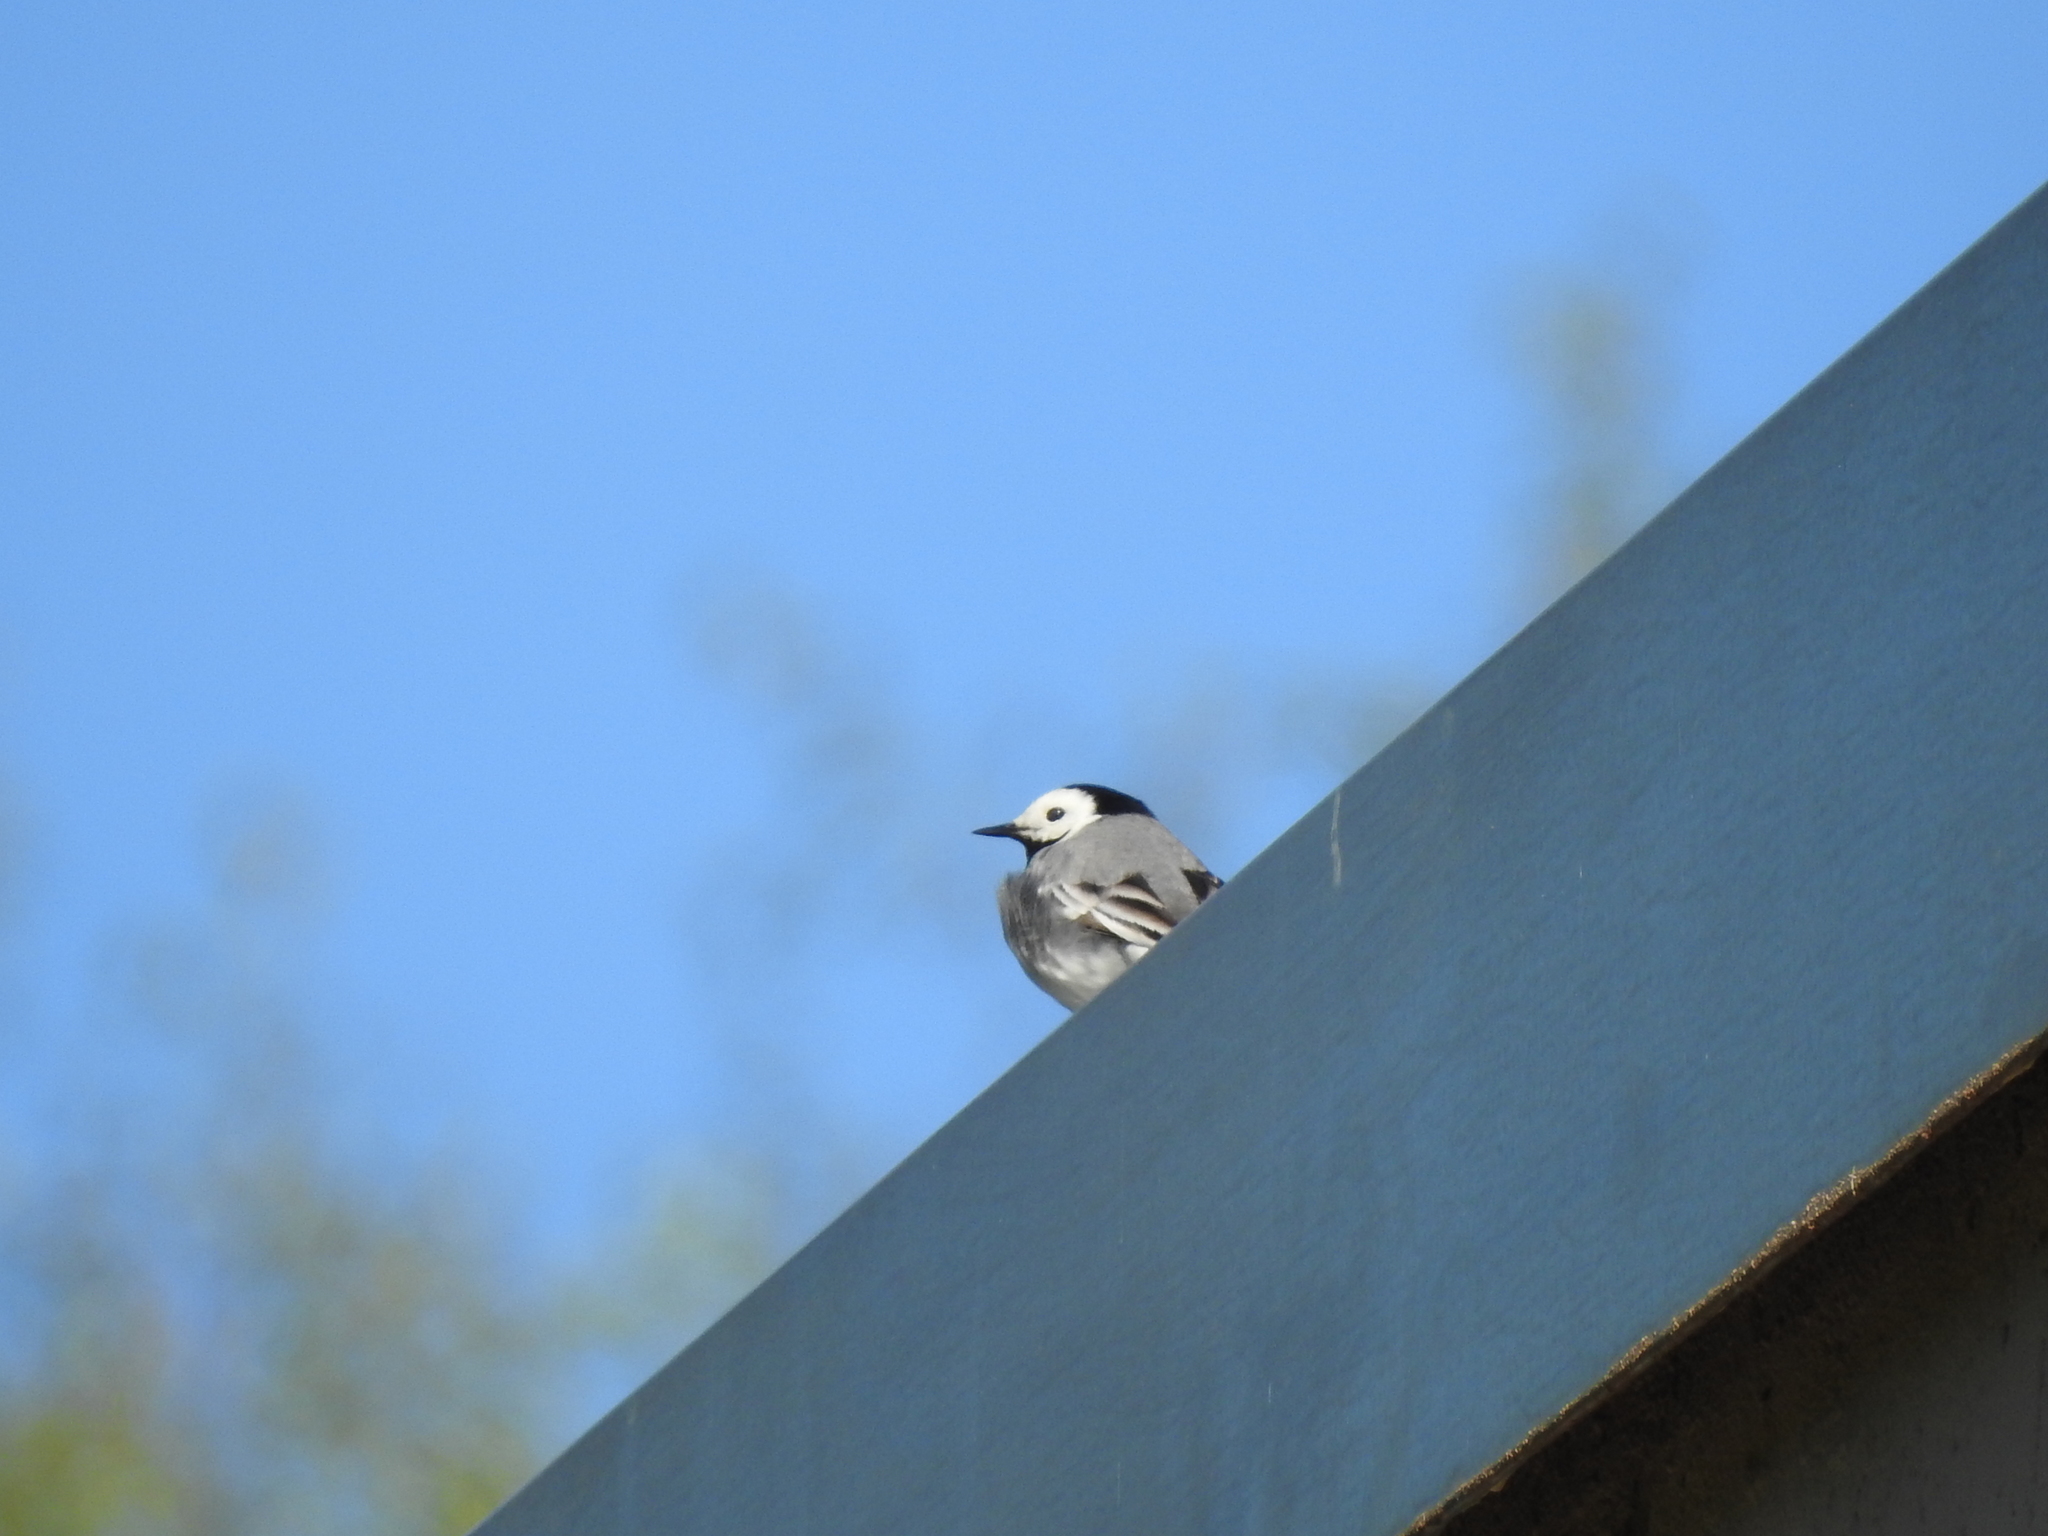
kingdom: Animalia
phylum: Chordata
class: Aves
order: Passeriformes
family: Motacillidae
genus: Motacilla
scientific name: Motacilla alba
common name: White wagtail
